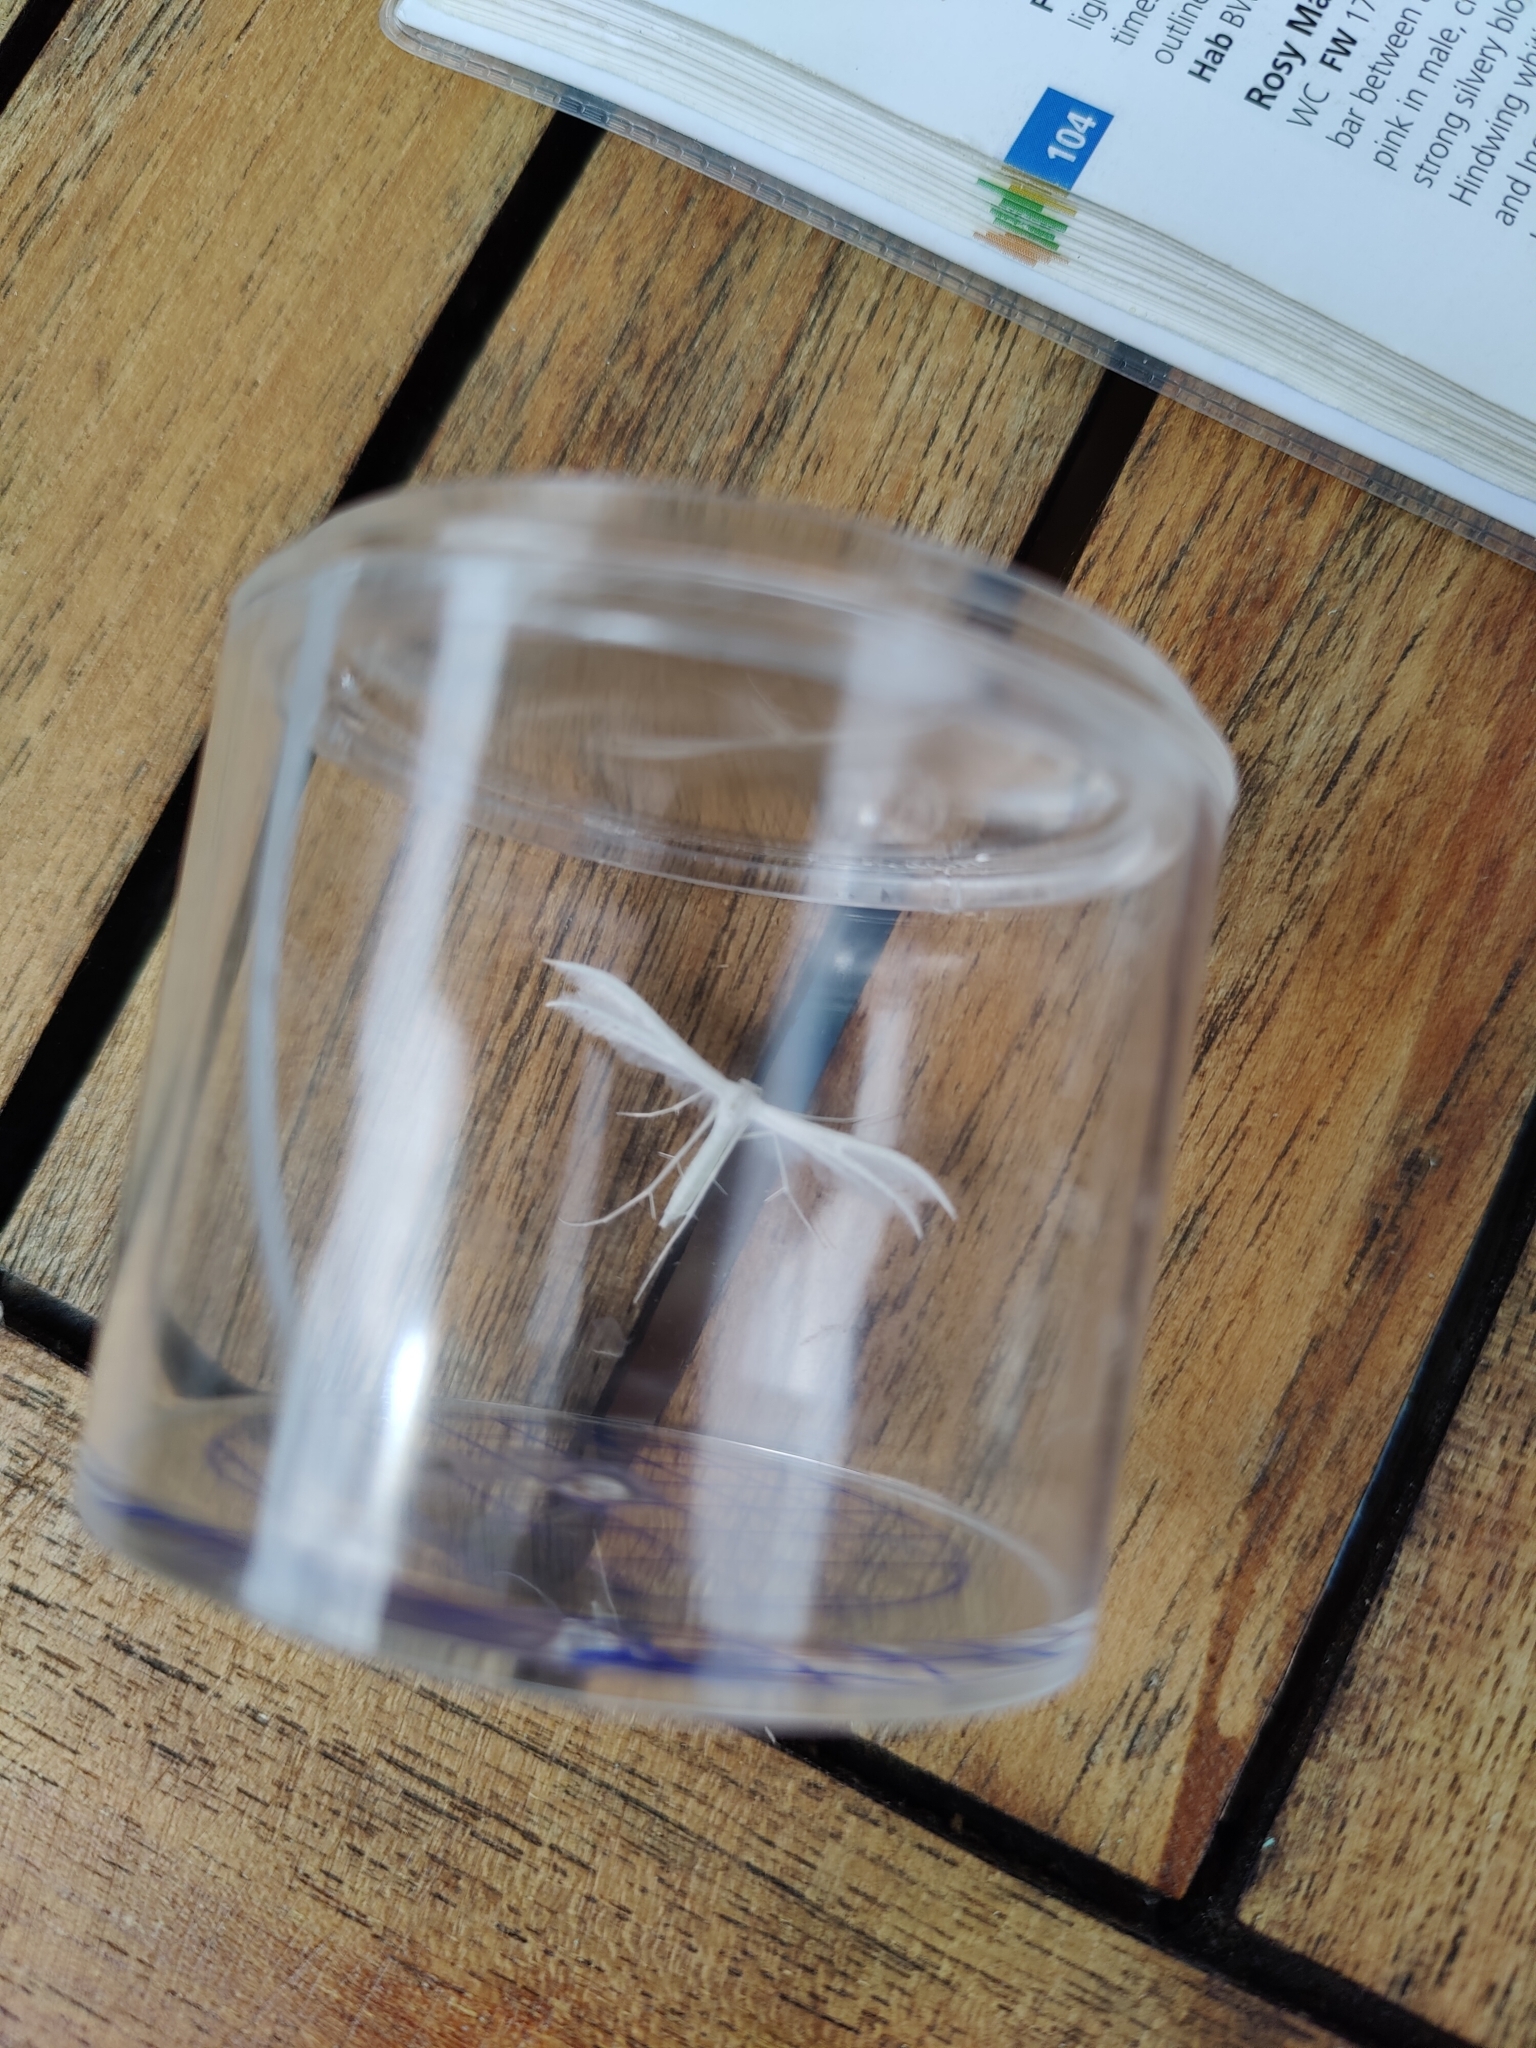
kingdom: Animalia
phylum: Arthropoda
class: Insecta
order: Lepidoptera
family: Pterophoridae
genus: Pterophorus
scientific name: Pterophorus pentadactyla
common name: White plume moth
